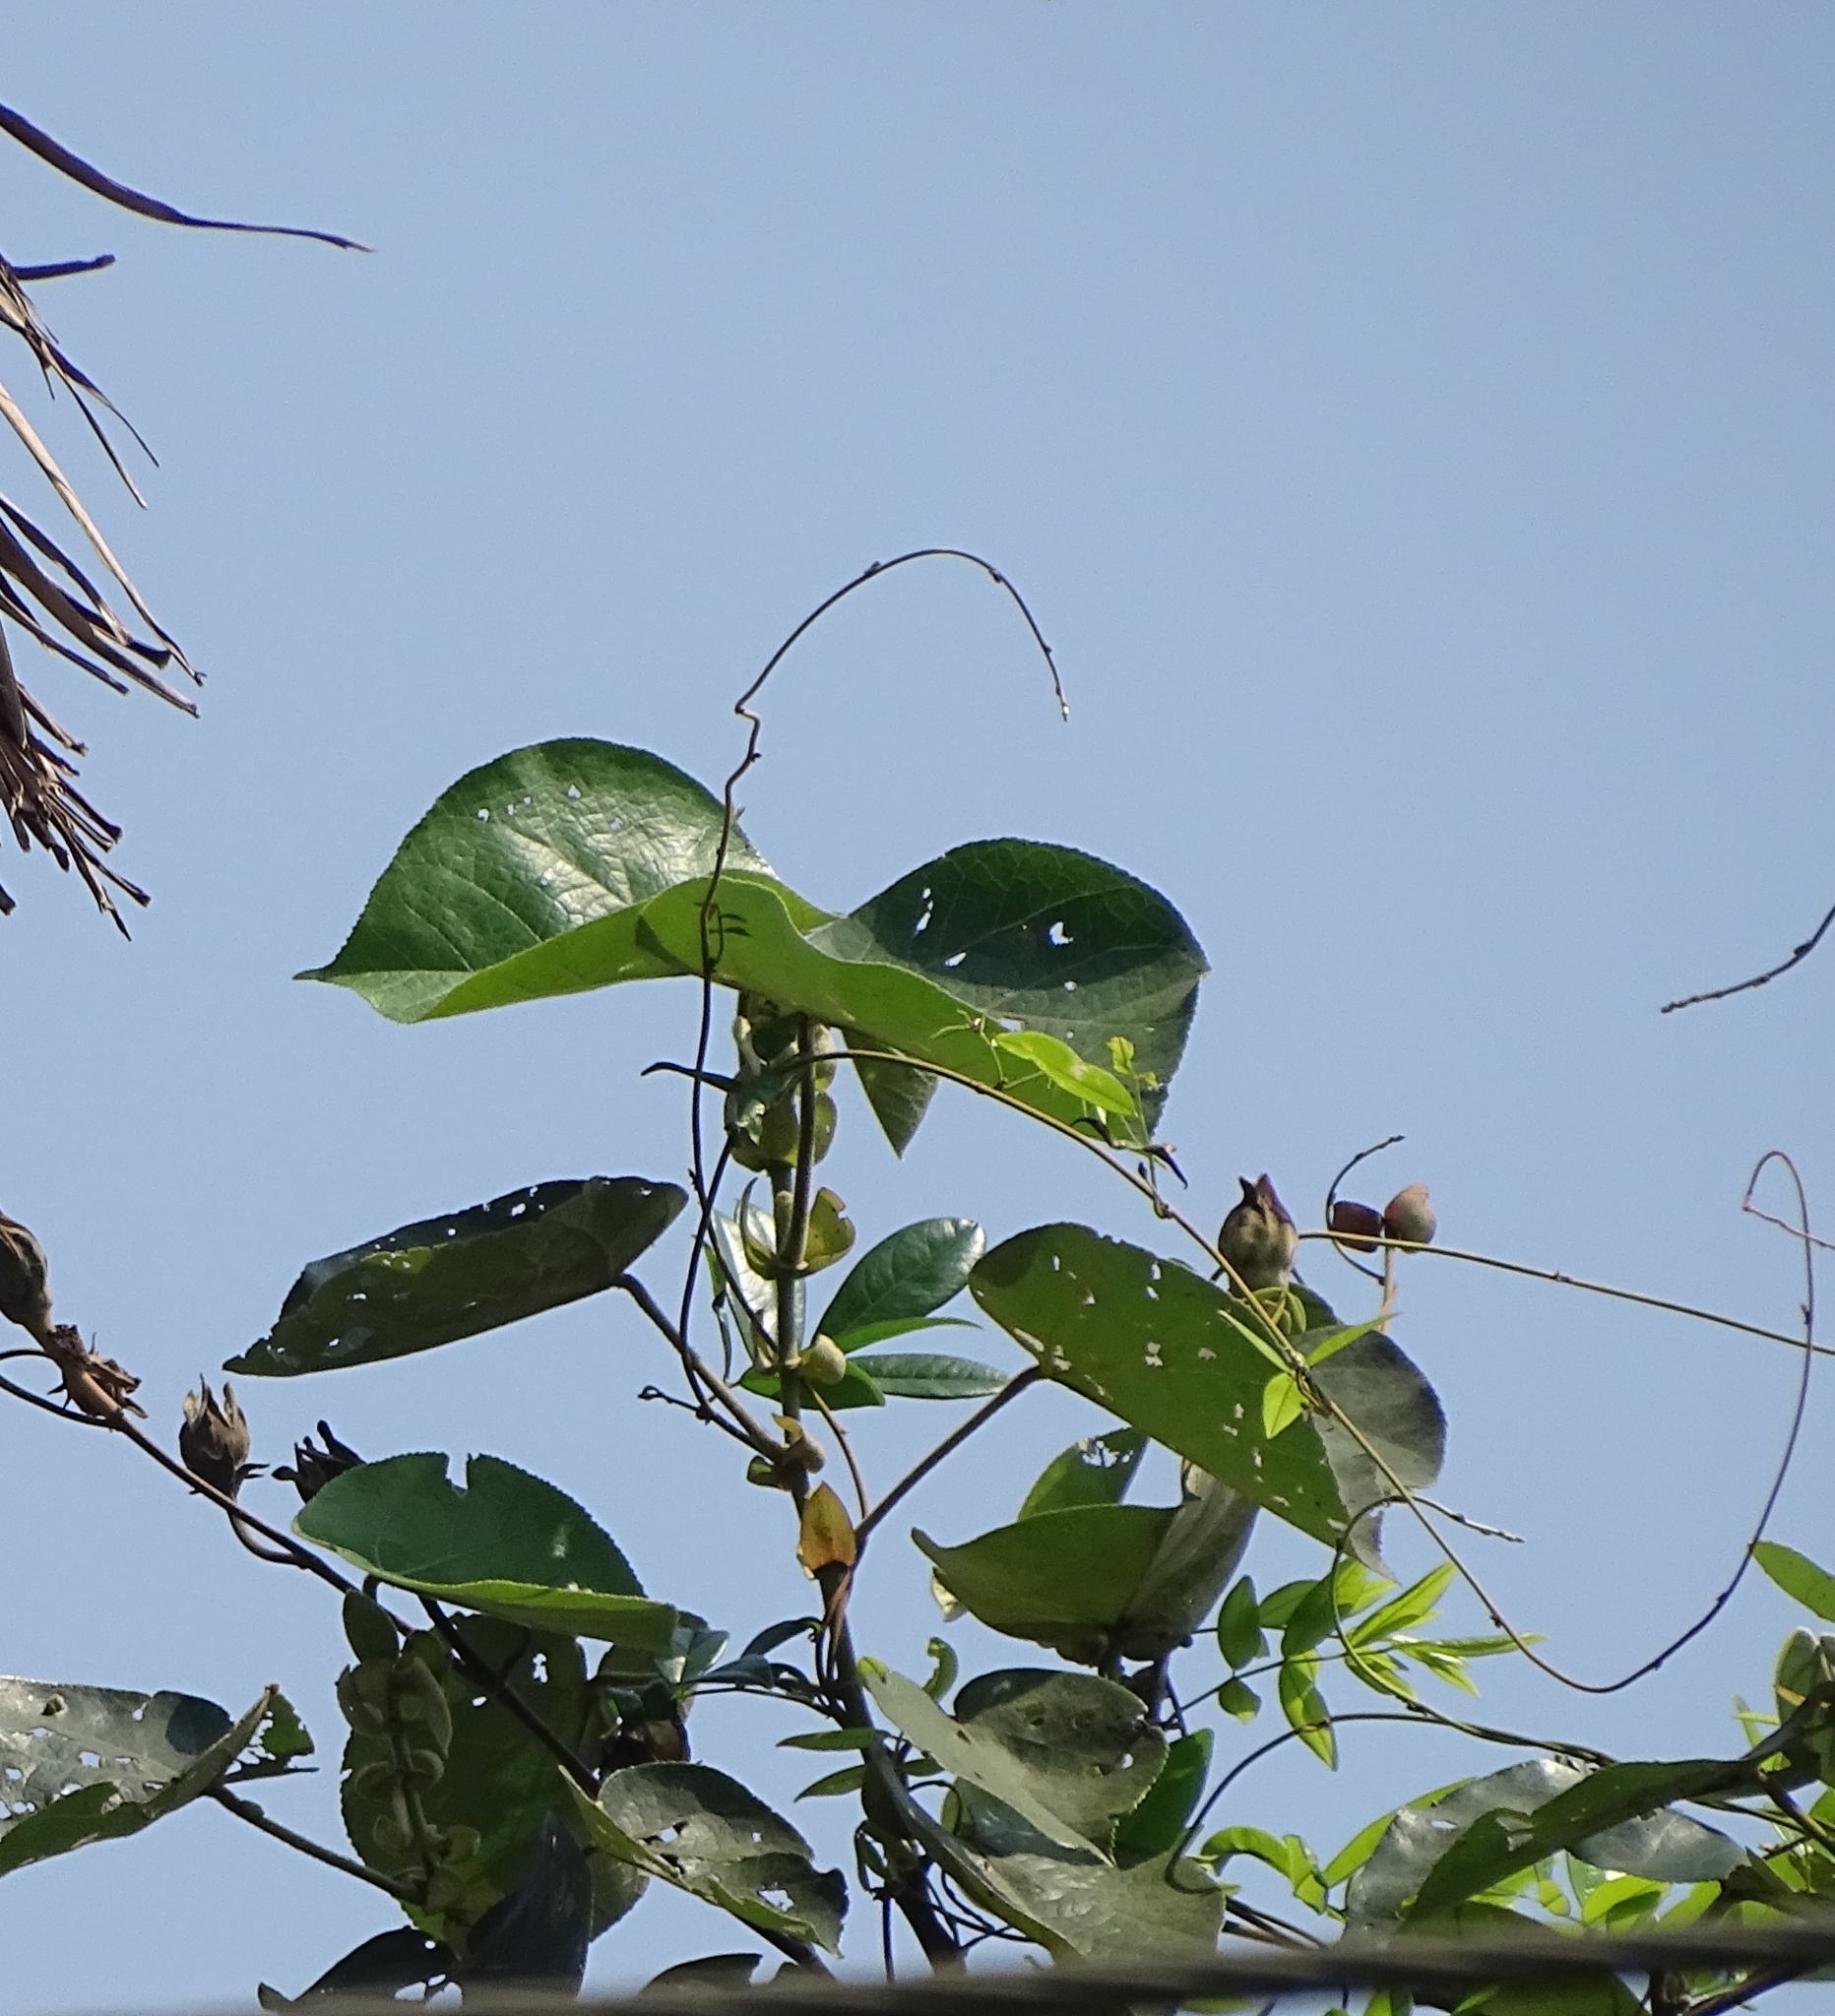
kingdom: Plantae
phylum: Tracheophyta
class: Magnoliopsida
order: Malvales
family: Malvaceae
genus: Talipariti
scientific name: Talipariti tiliaceum
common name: Sea hibiscus
